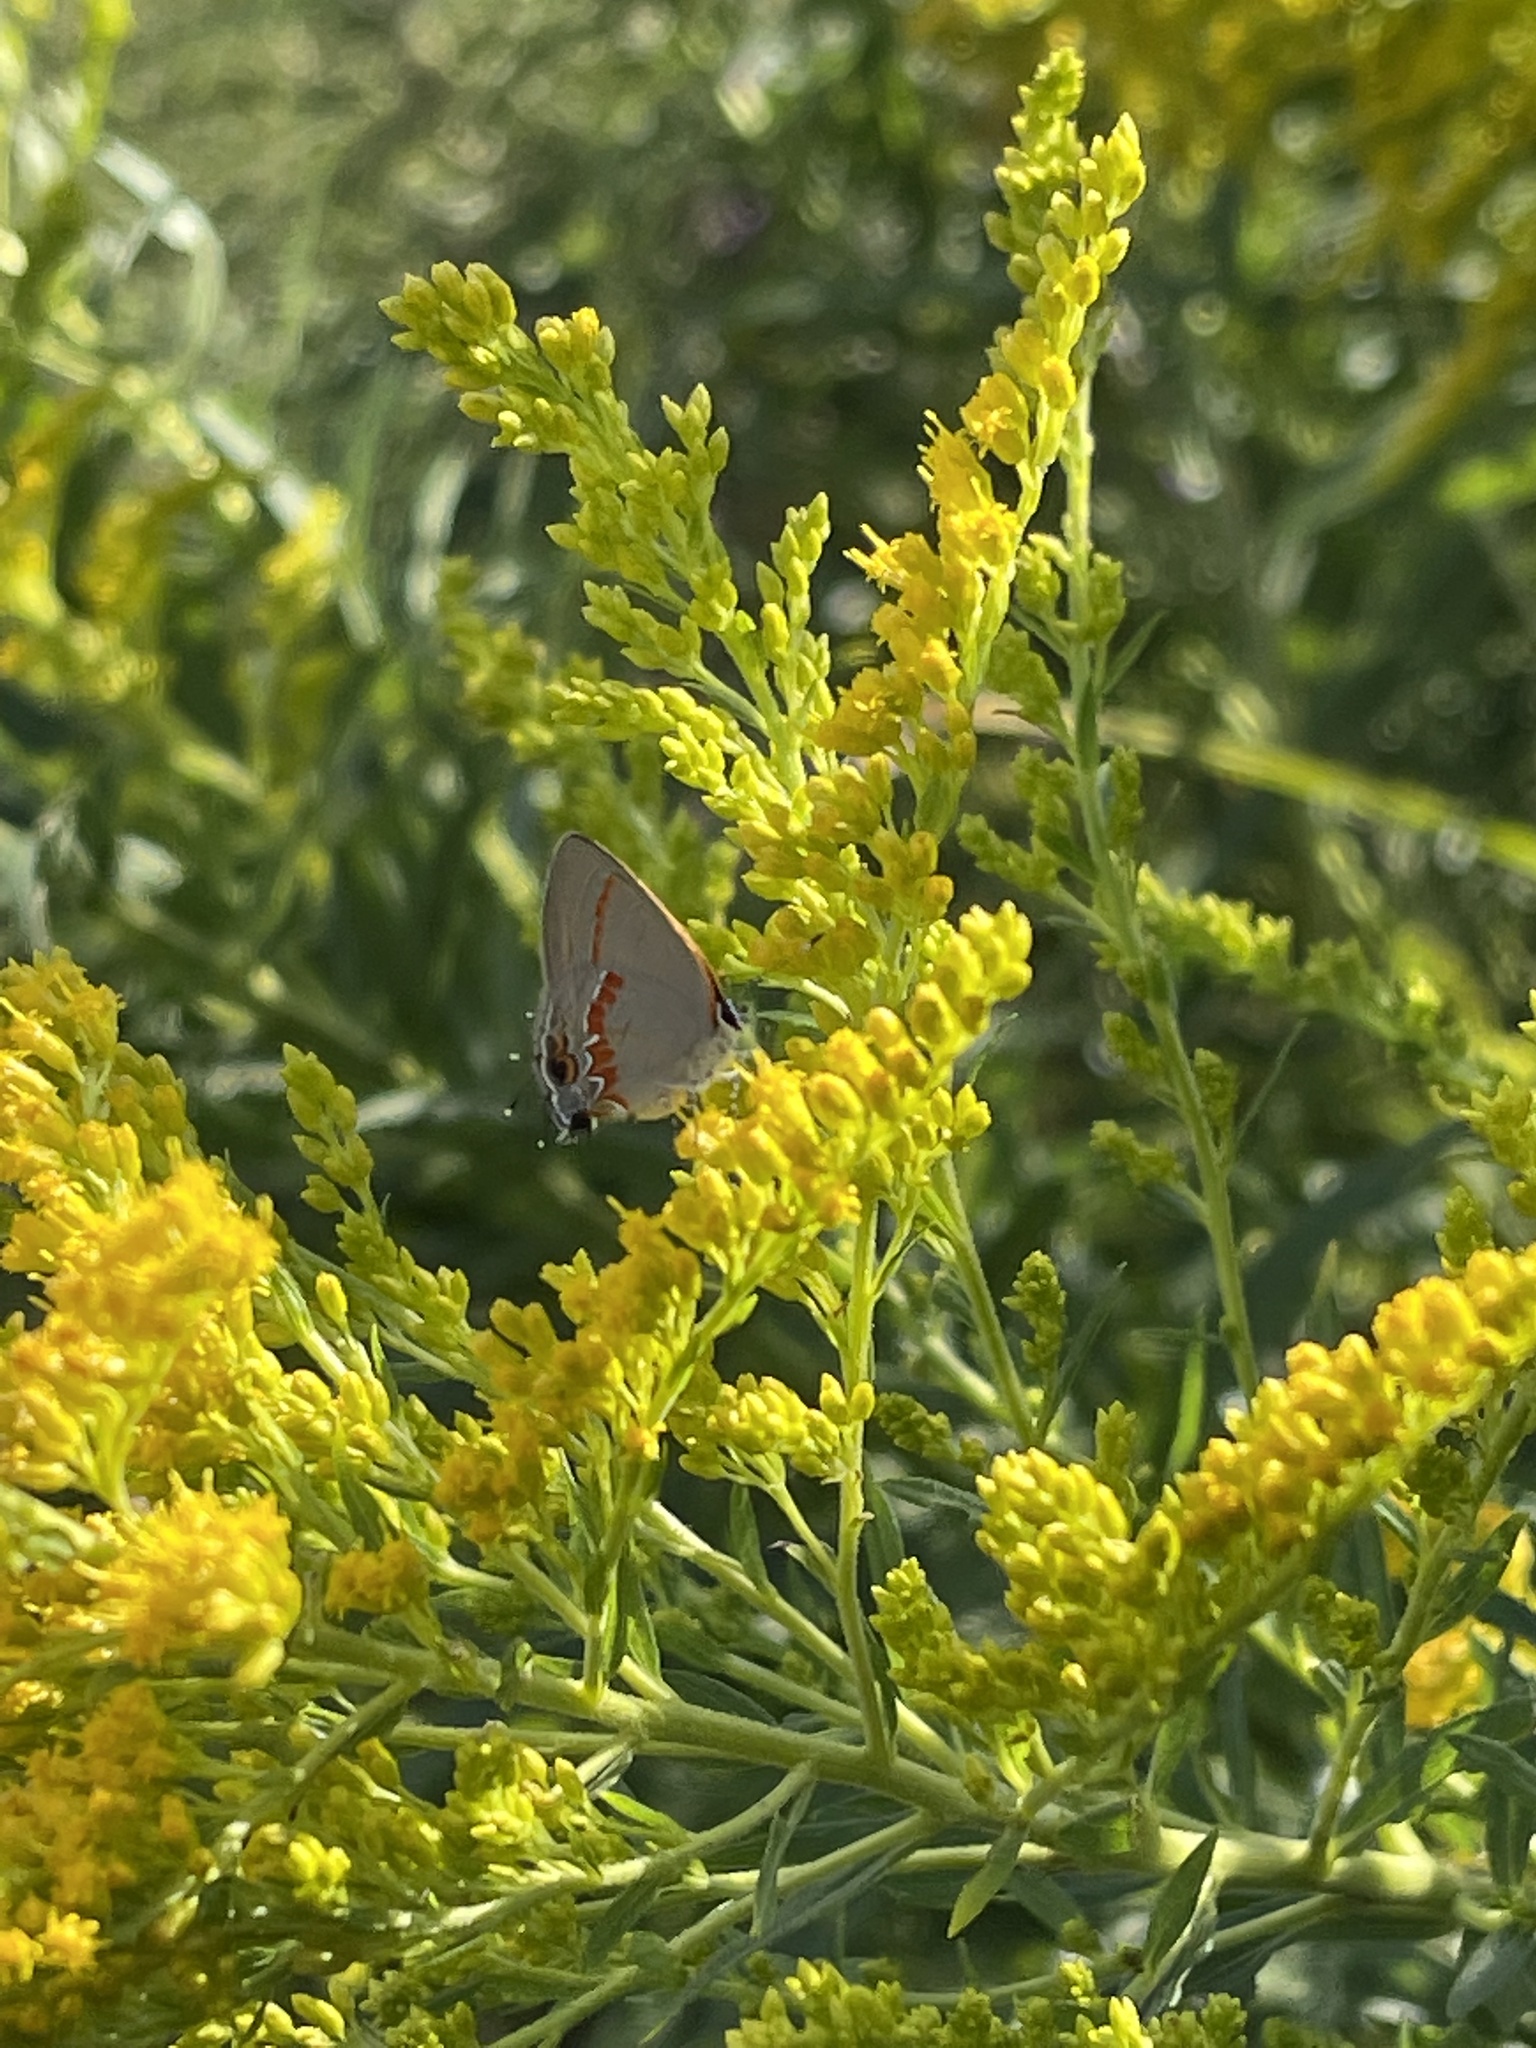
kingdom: Animalia
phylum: Arthropoda
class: Insecta
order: Lepidoptera
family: Lycaenidae
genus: Calycopis
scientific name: Calycopis cecrops
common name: Red-banded hairstreak
